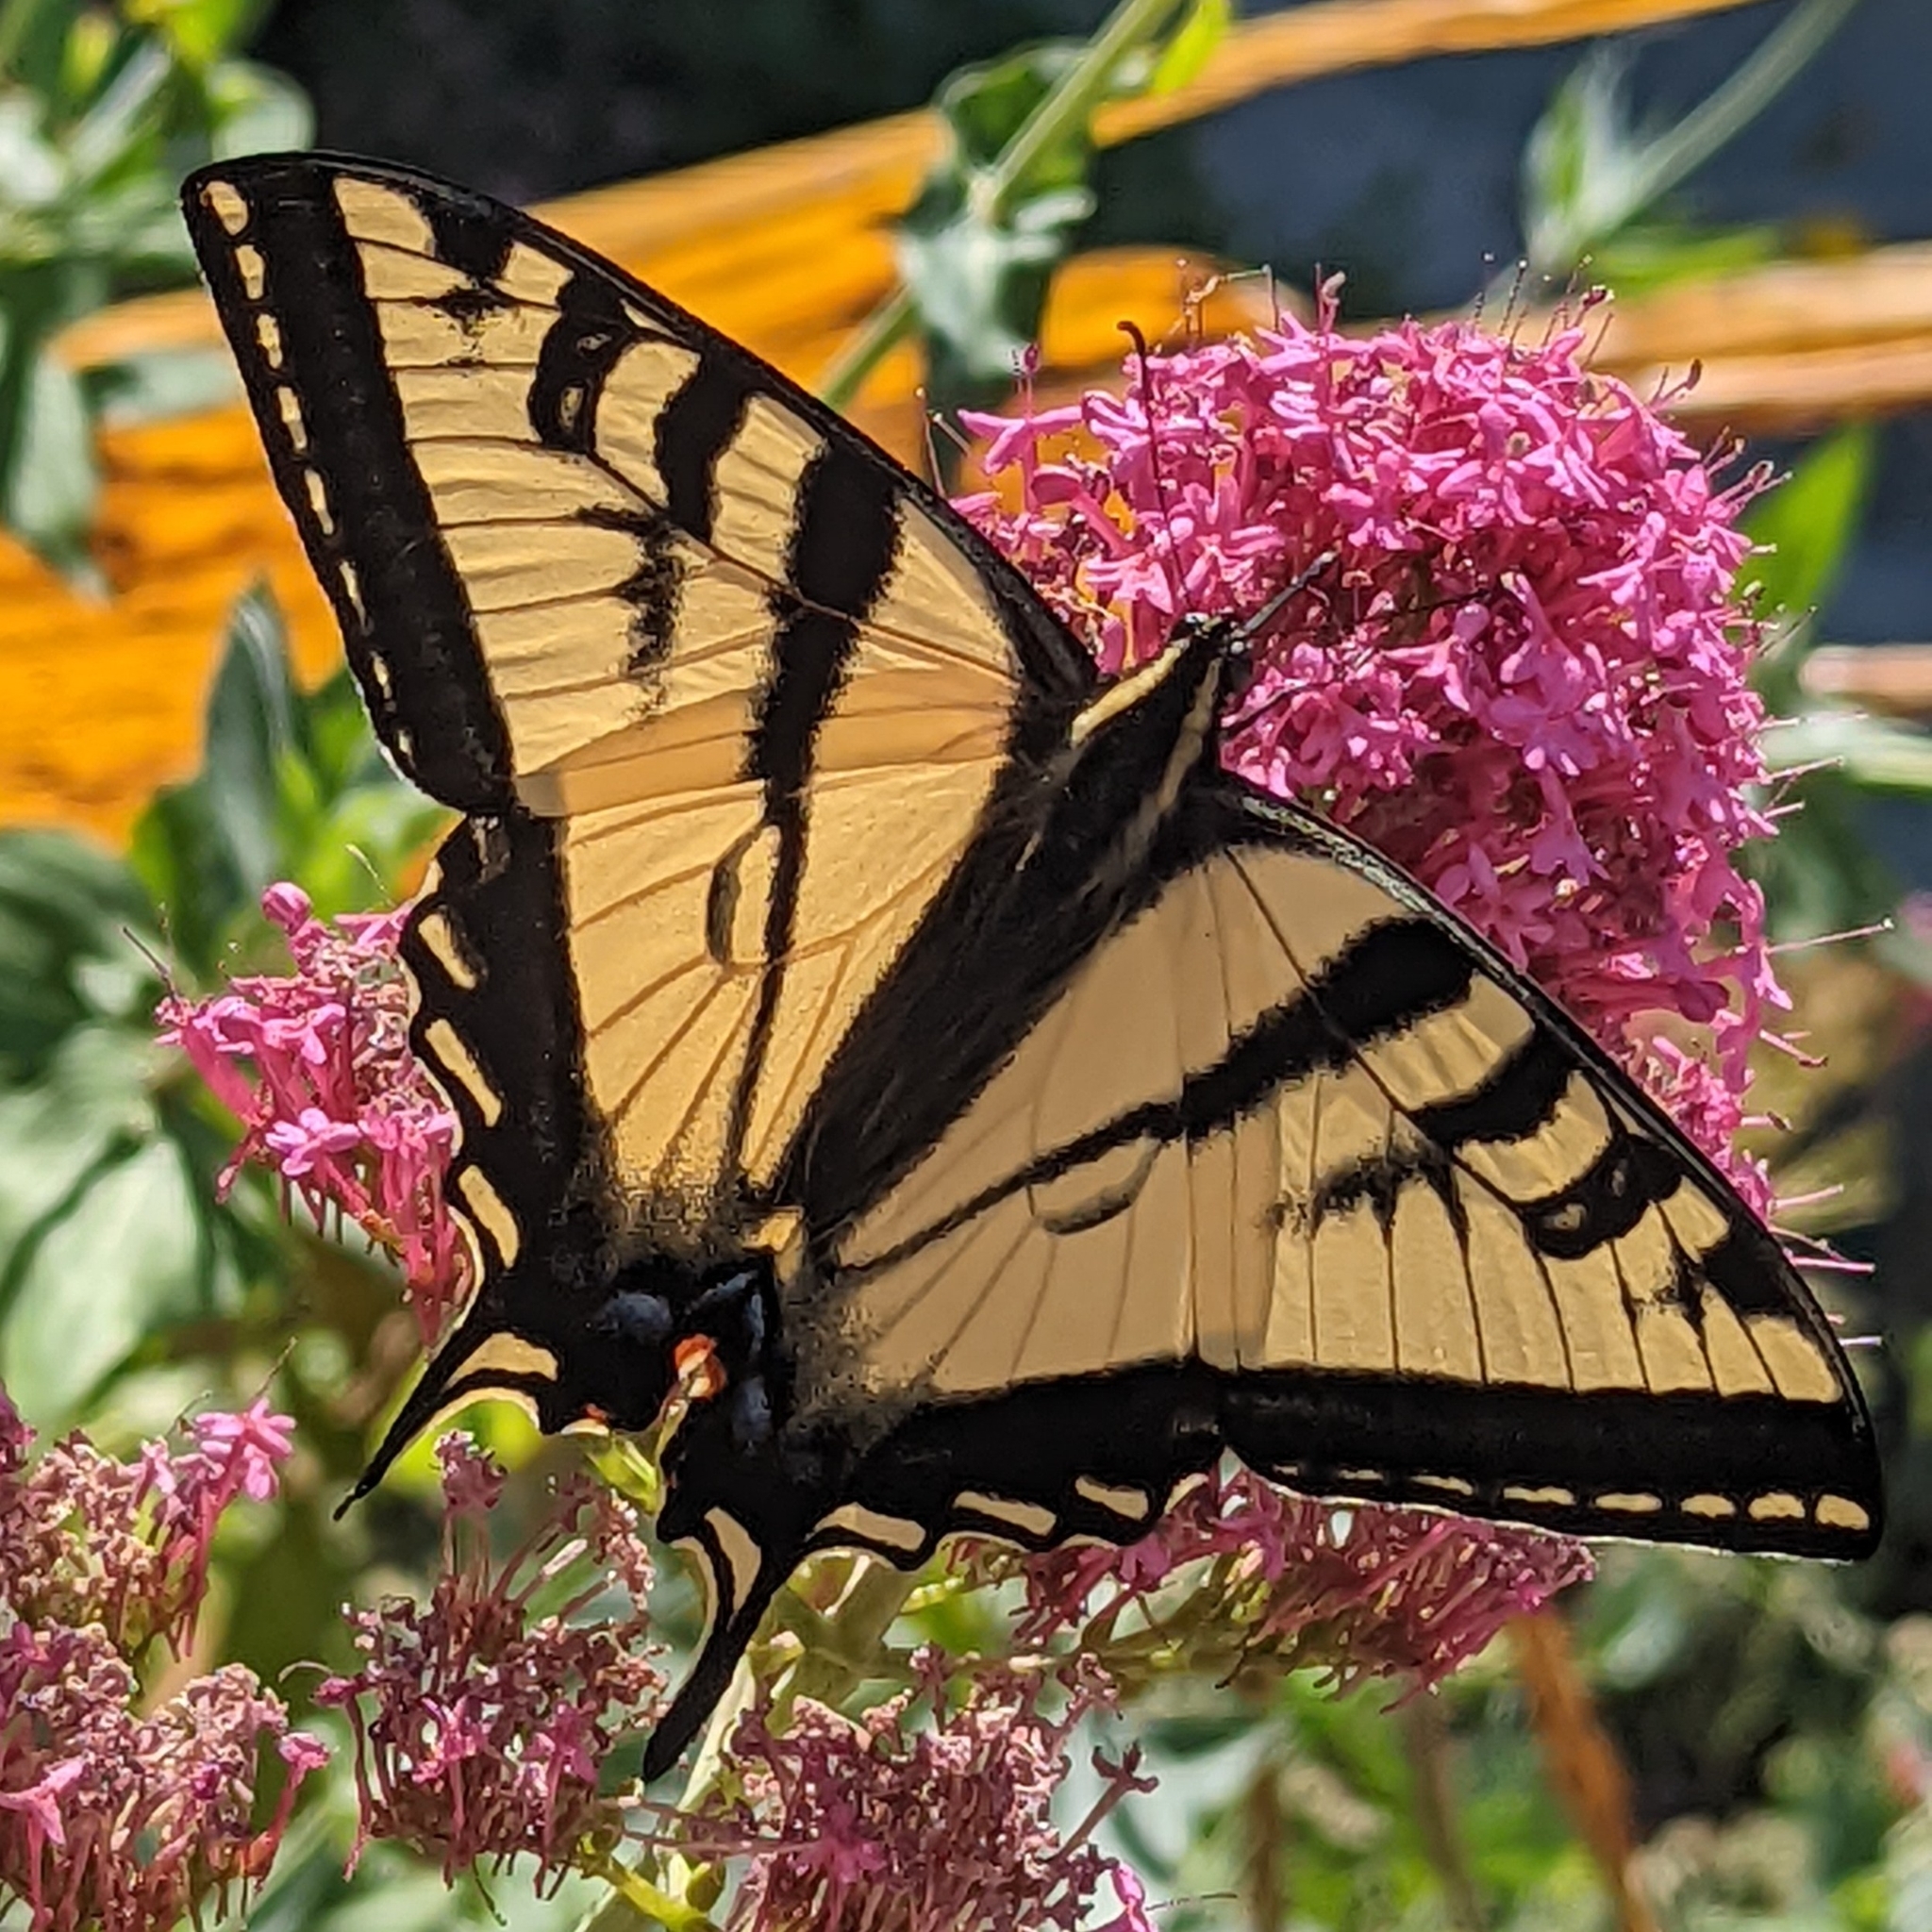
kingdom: Animalia
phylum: Arthropoda
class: Insecta
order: Lepidoptera
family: Papilionidae
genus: Papilio
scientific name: Papilio rutulus
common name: Western tiger swallowtail
